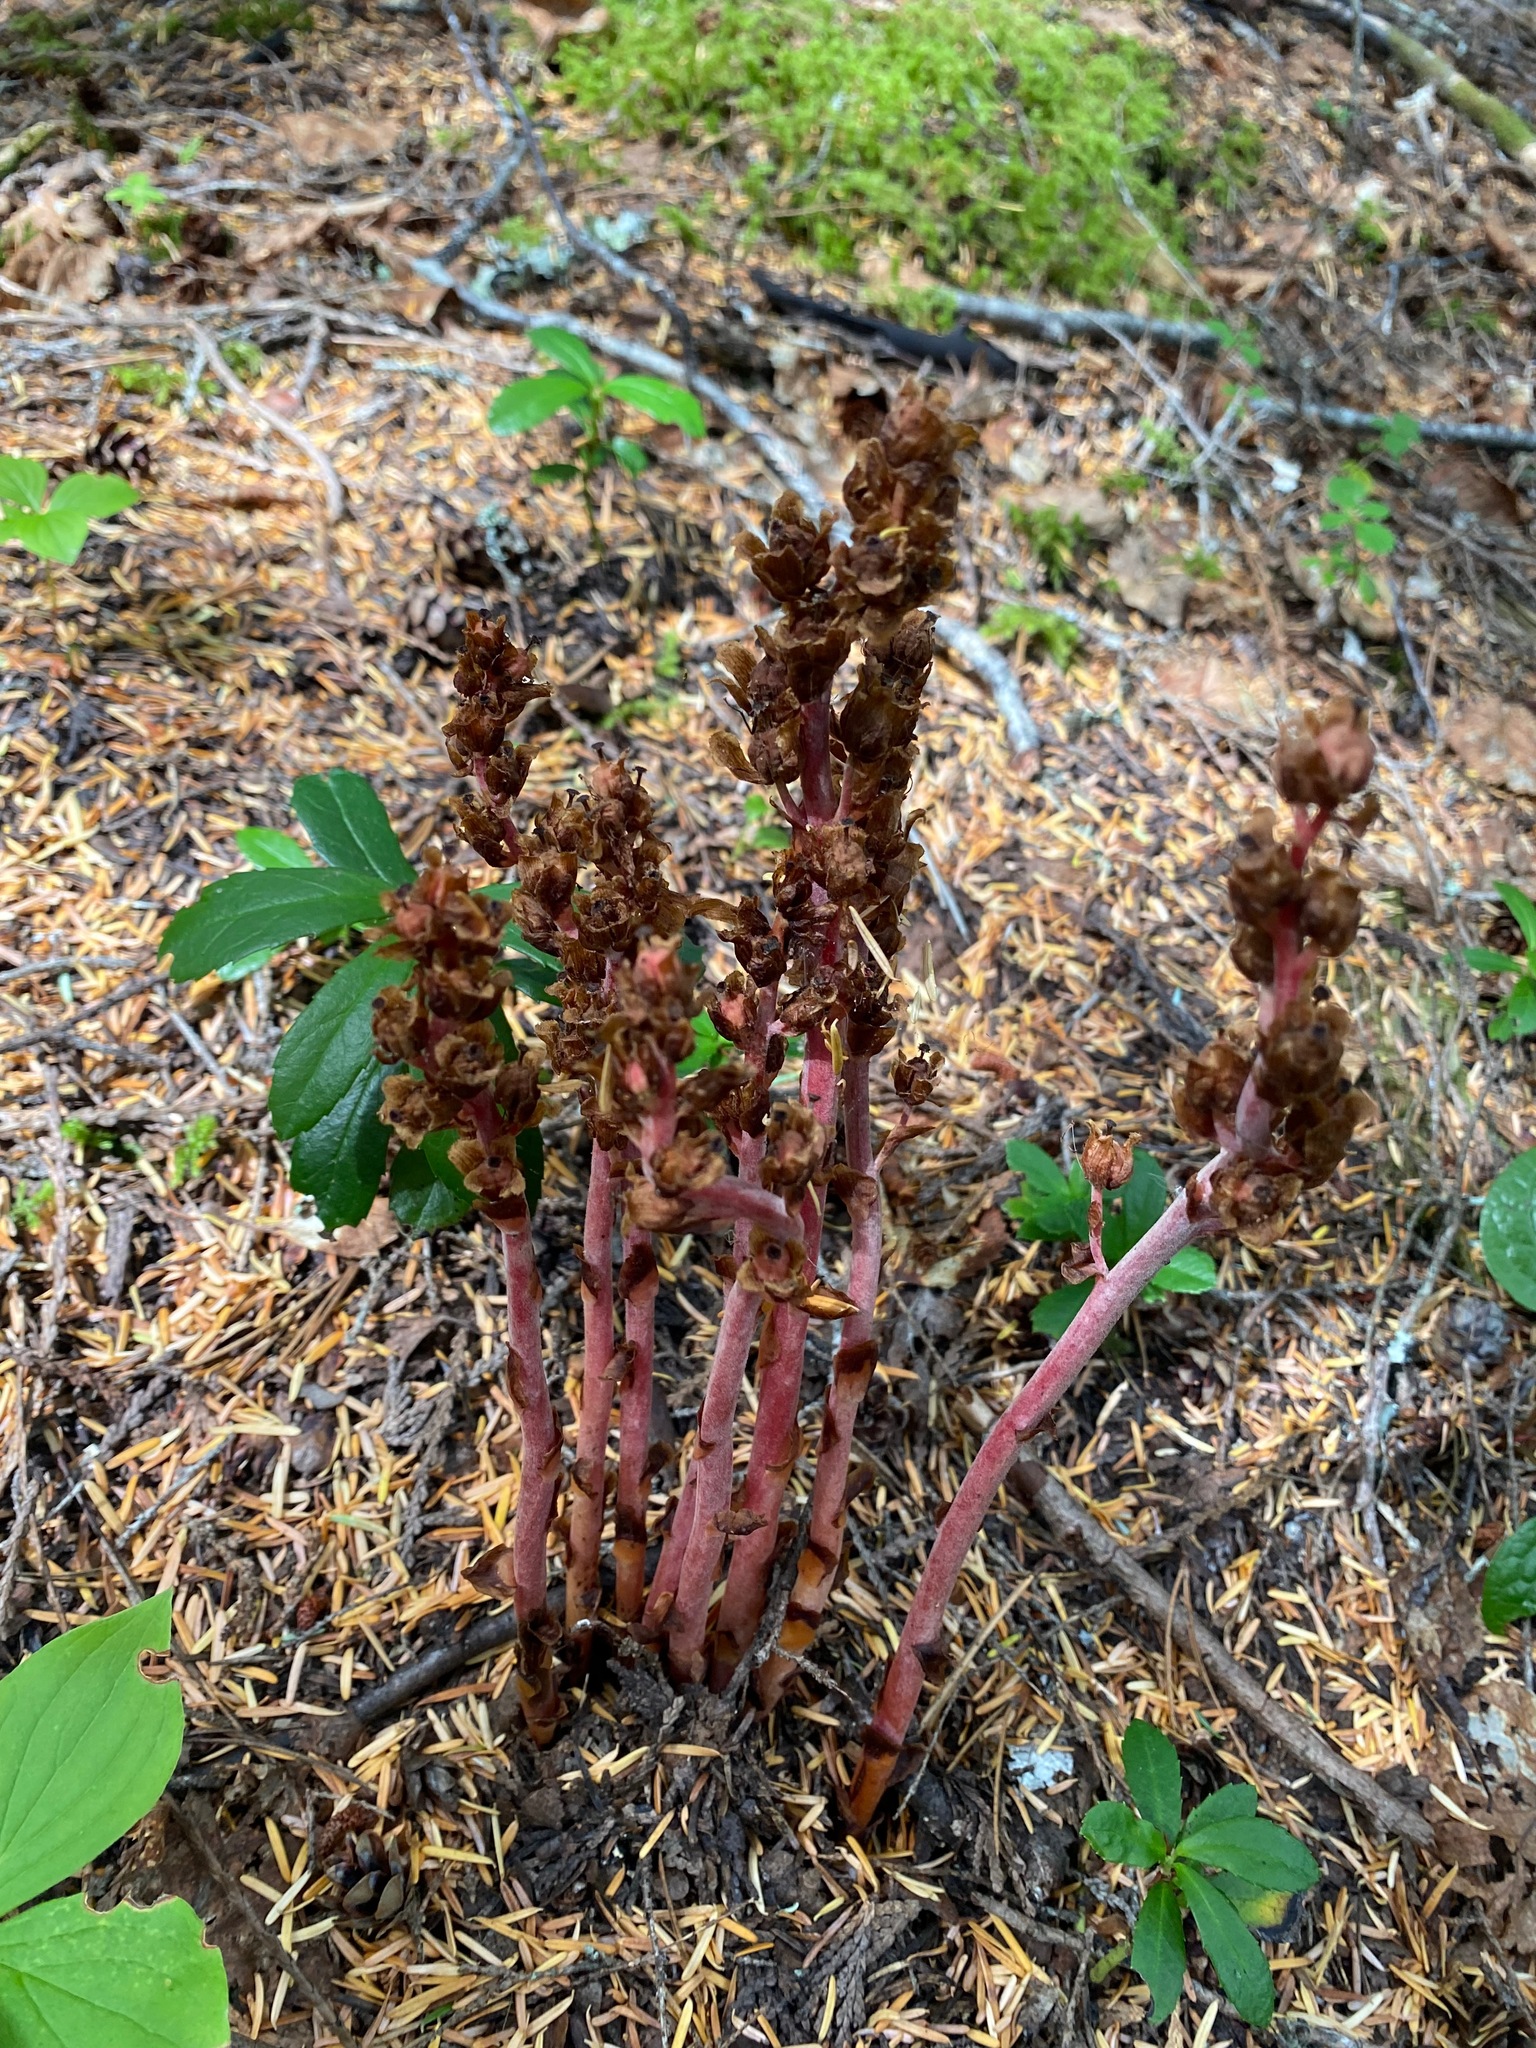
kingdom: Plantae
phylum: Tracheophyta
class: Magnoliopsida
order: Ericales
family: Ericaceae
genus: Hypopitys
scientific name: Hypopitys monotropa
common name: Yellow bird's-nest
